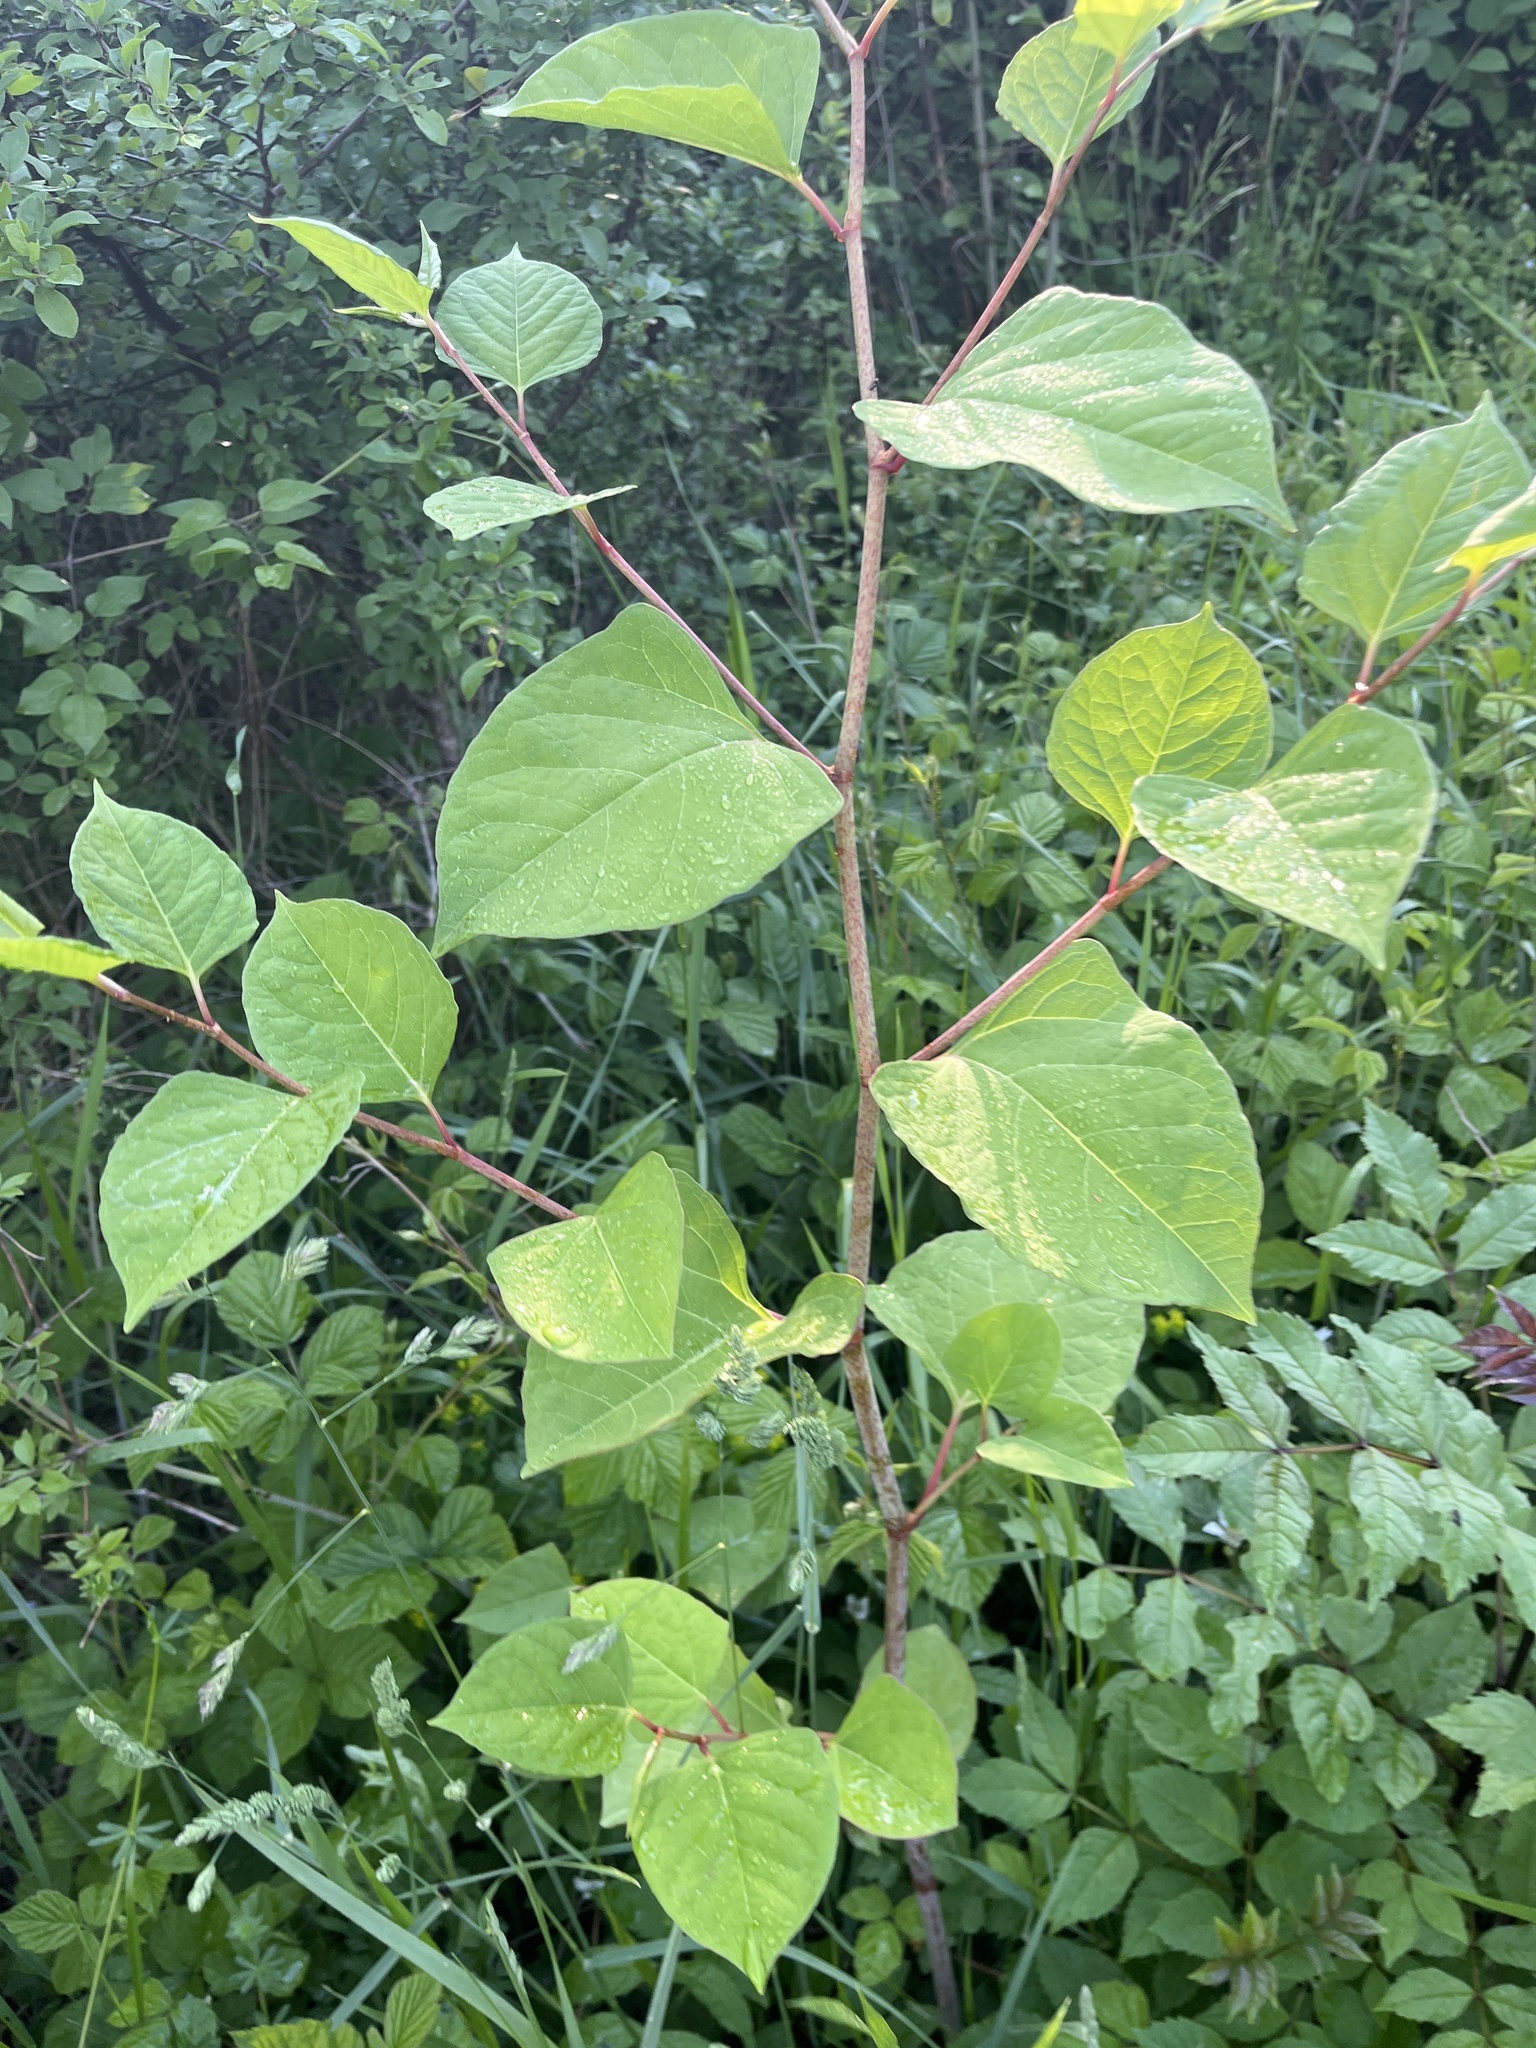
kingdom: Plantae
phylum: Tracheophyta
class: Magnoliopsida
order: Caryophyllales
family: Polygonaceae
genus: Reynoutria
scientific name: Reynoutria japonica
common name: Japanese knotweed
